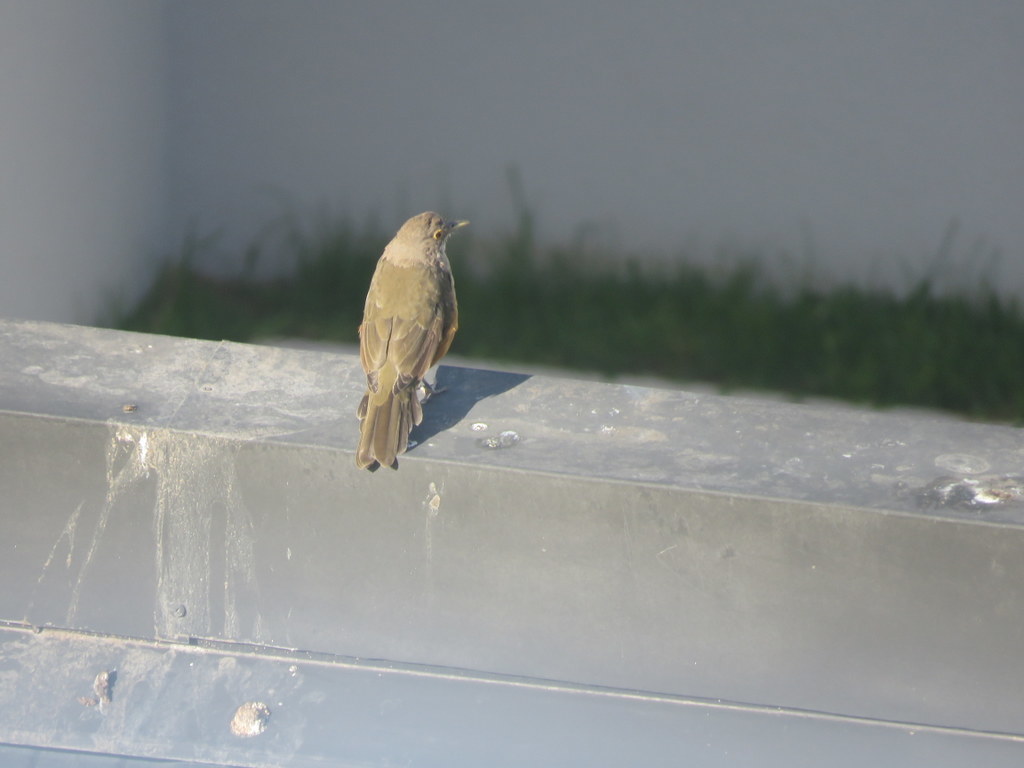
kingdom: Animalia
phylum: Chordata
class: Aves
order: Passeriformes
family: Turdidae
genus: Turdus
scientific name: Turdus rufiventris
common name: Rufous-bellied thrush
